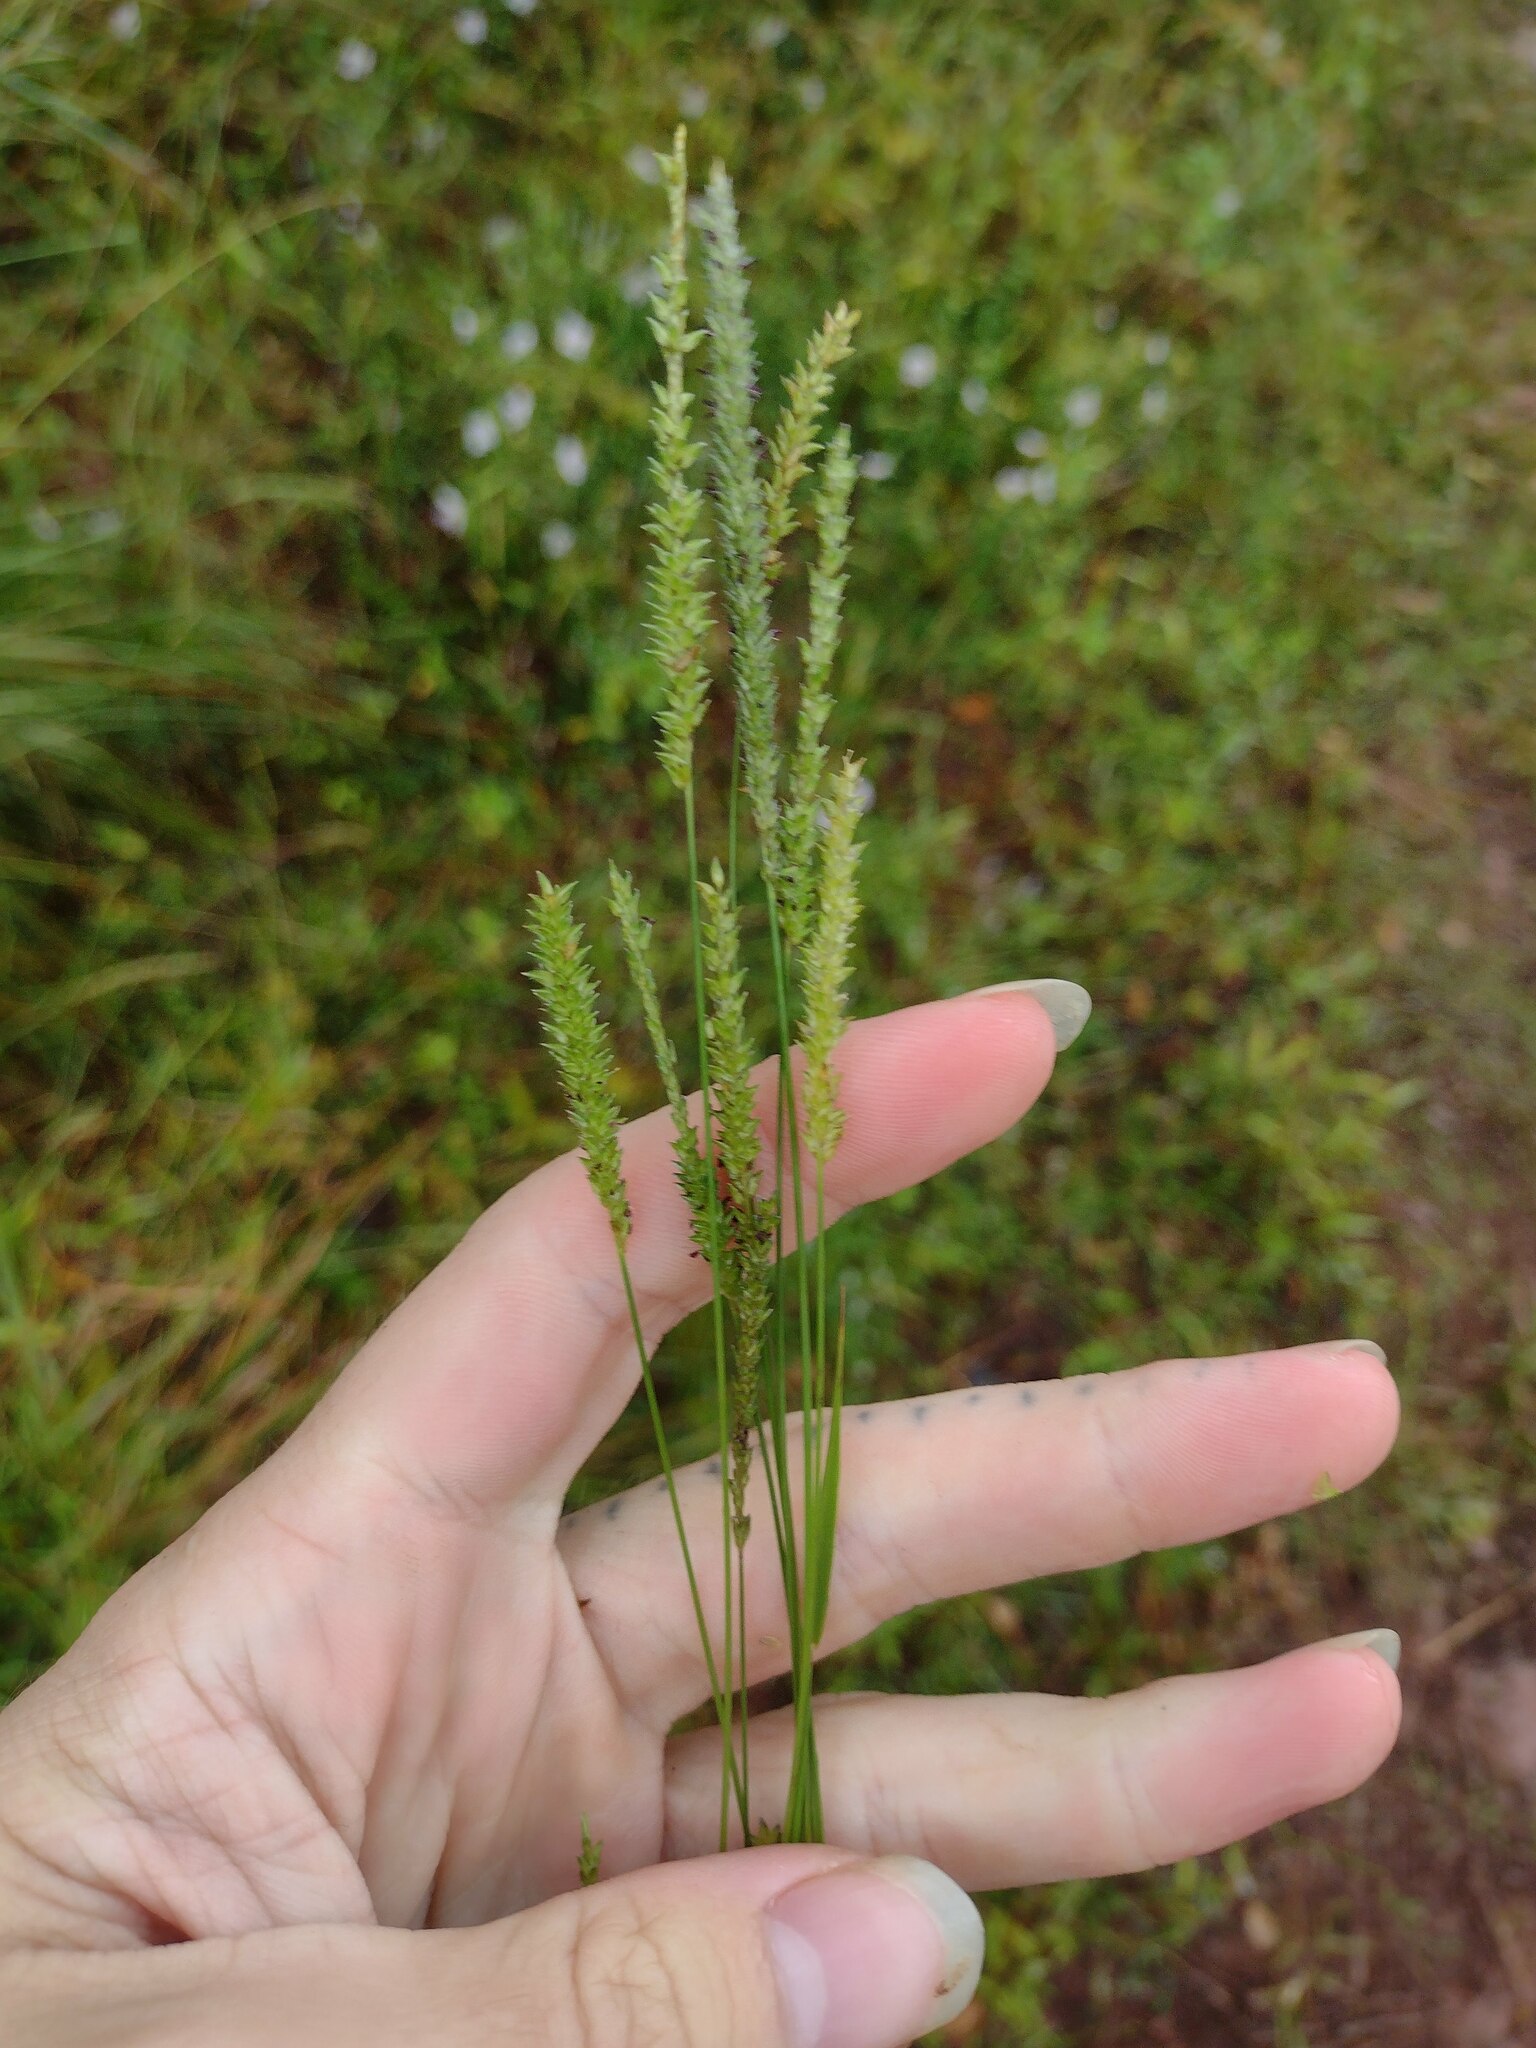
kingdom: Plantae
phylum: Tracheophyta
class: Liliopsida
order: Poales
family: Poaceae
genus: Sacciolepis
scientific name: Sacciolepis indica
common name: Glenwoodgrass
